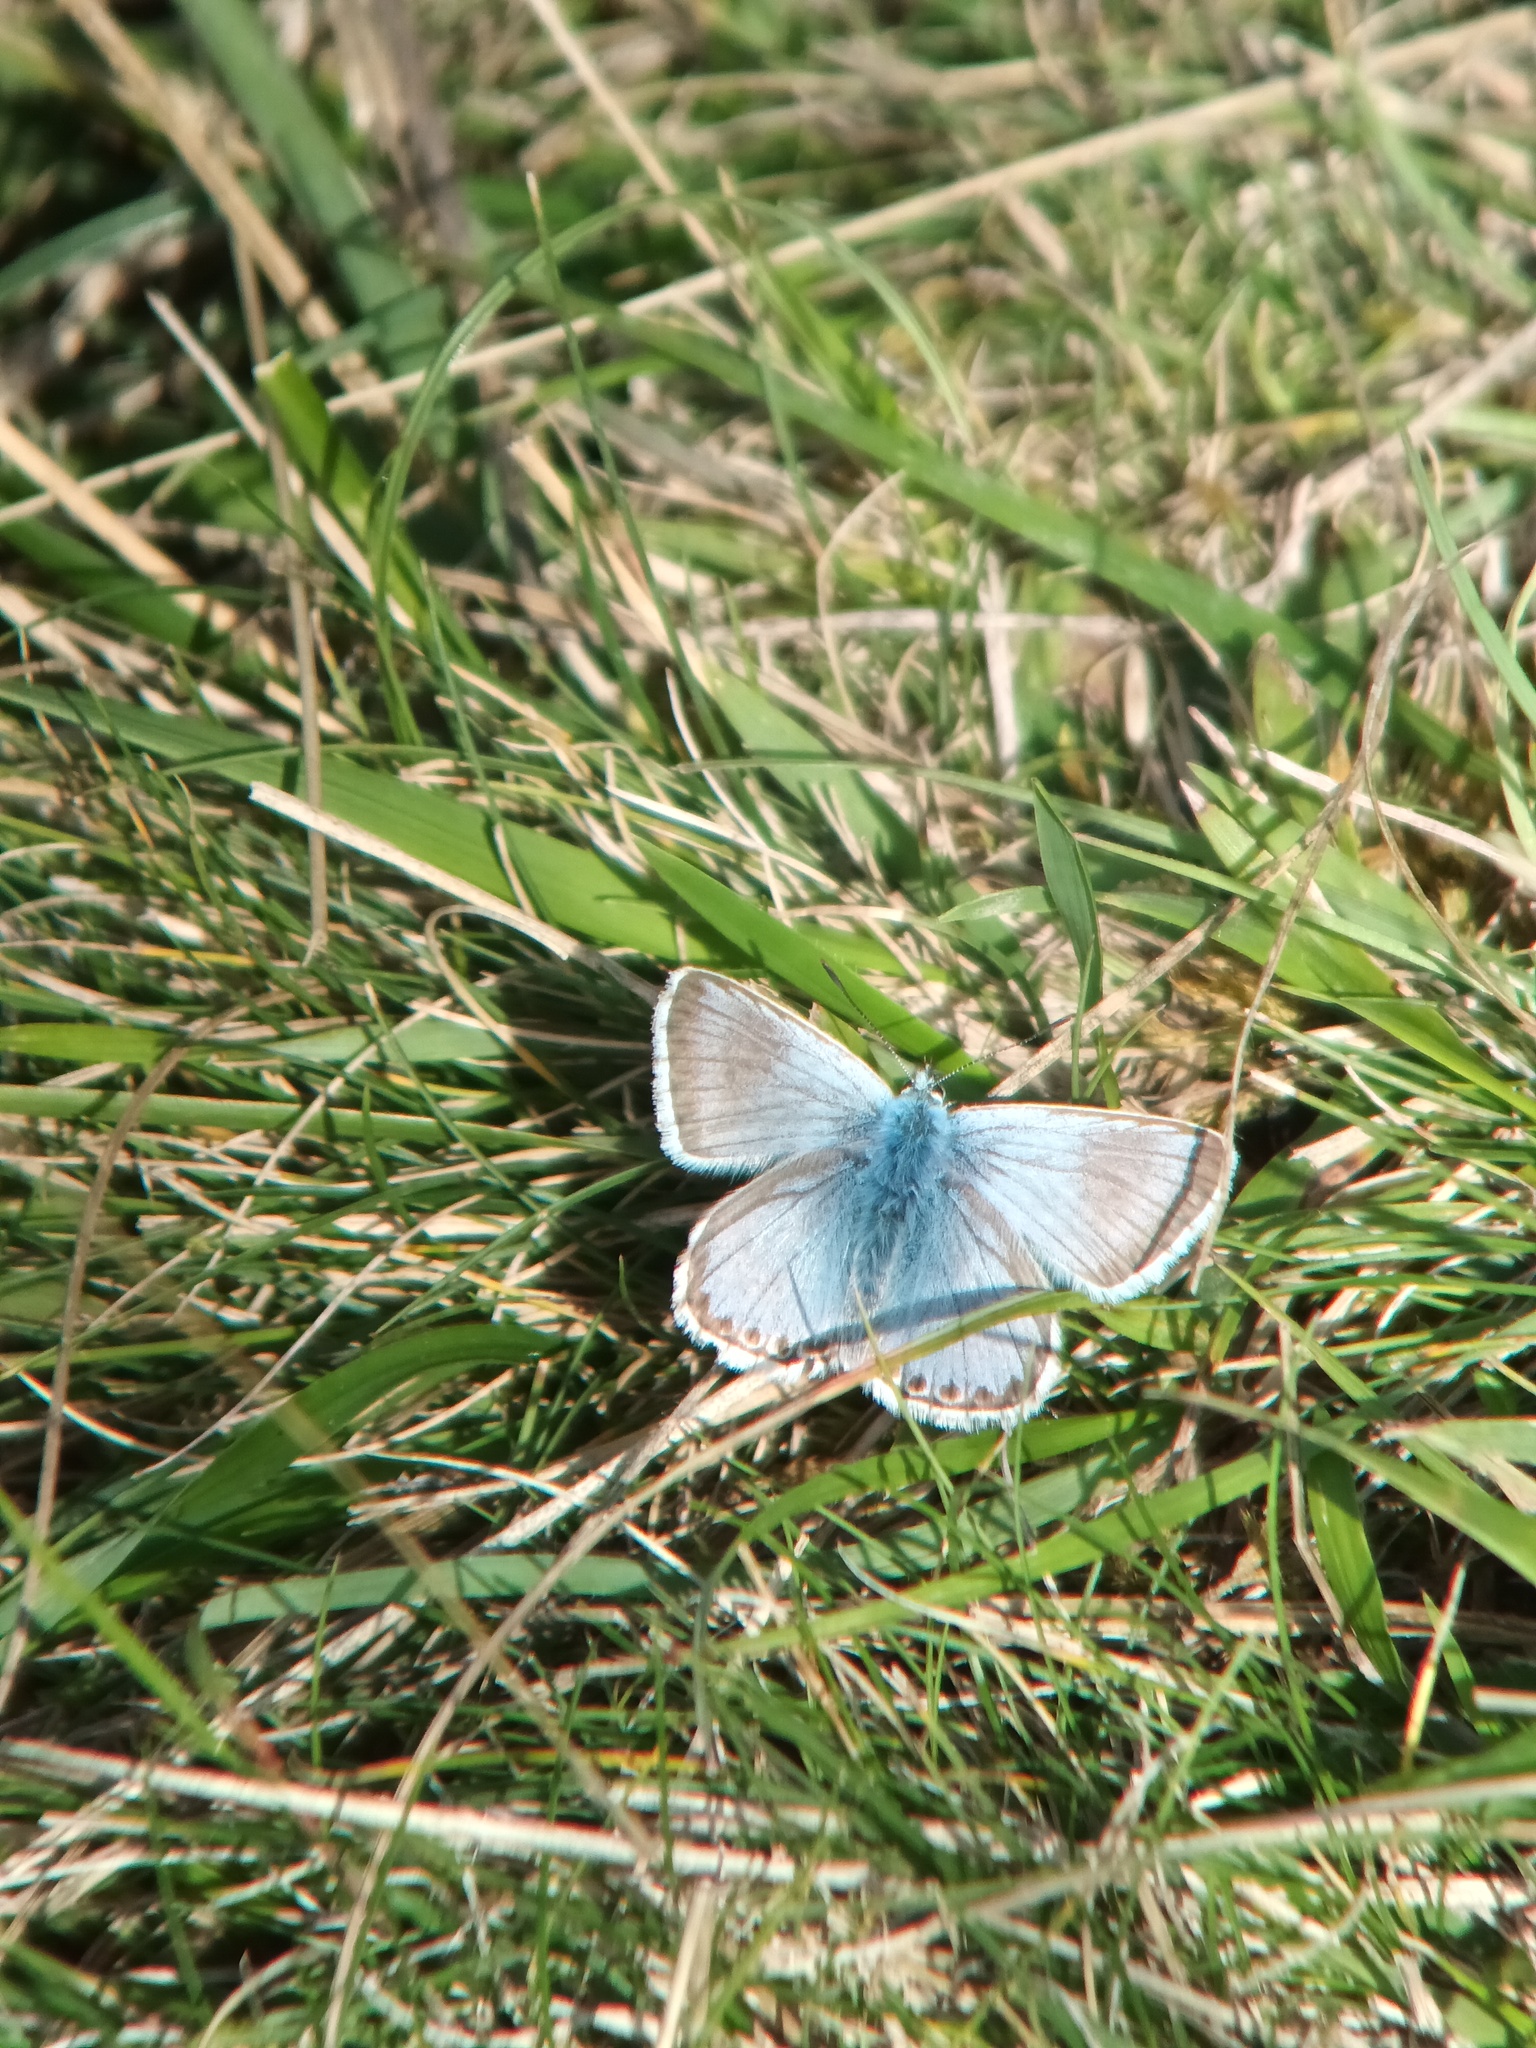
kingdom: Animalia
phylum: Arthropoda
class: Insecta
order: Lepidoptera
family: Lycaenidae
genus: Lysandra
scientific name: Lysandra coridon
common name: Chalkhill blue
